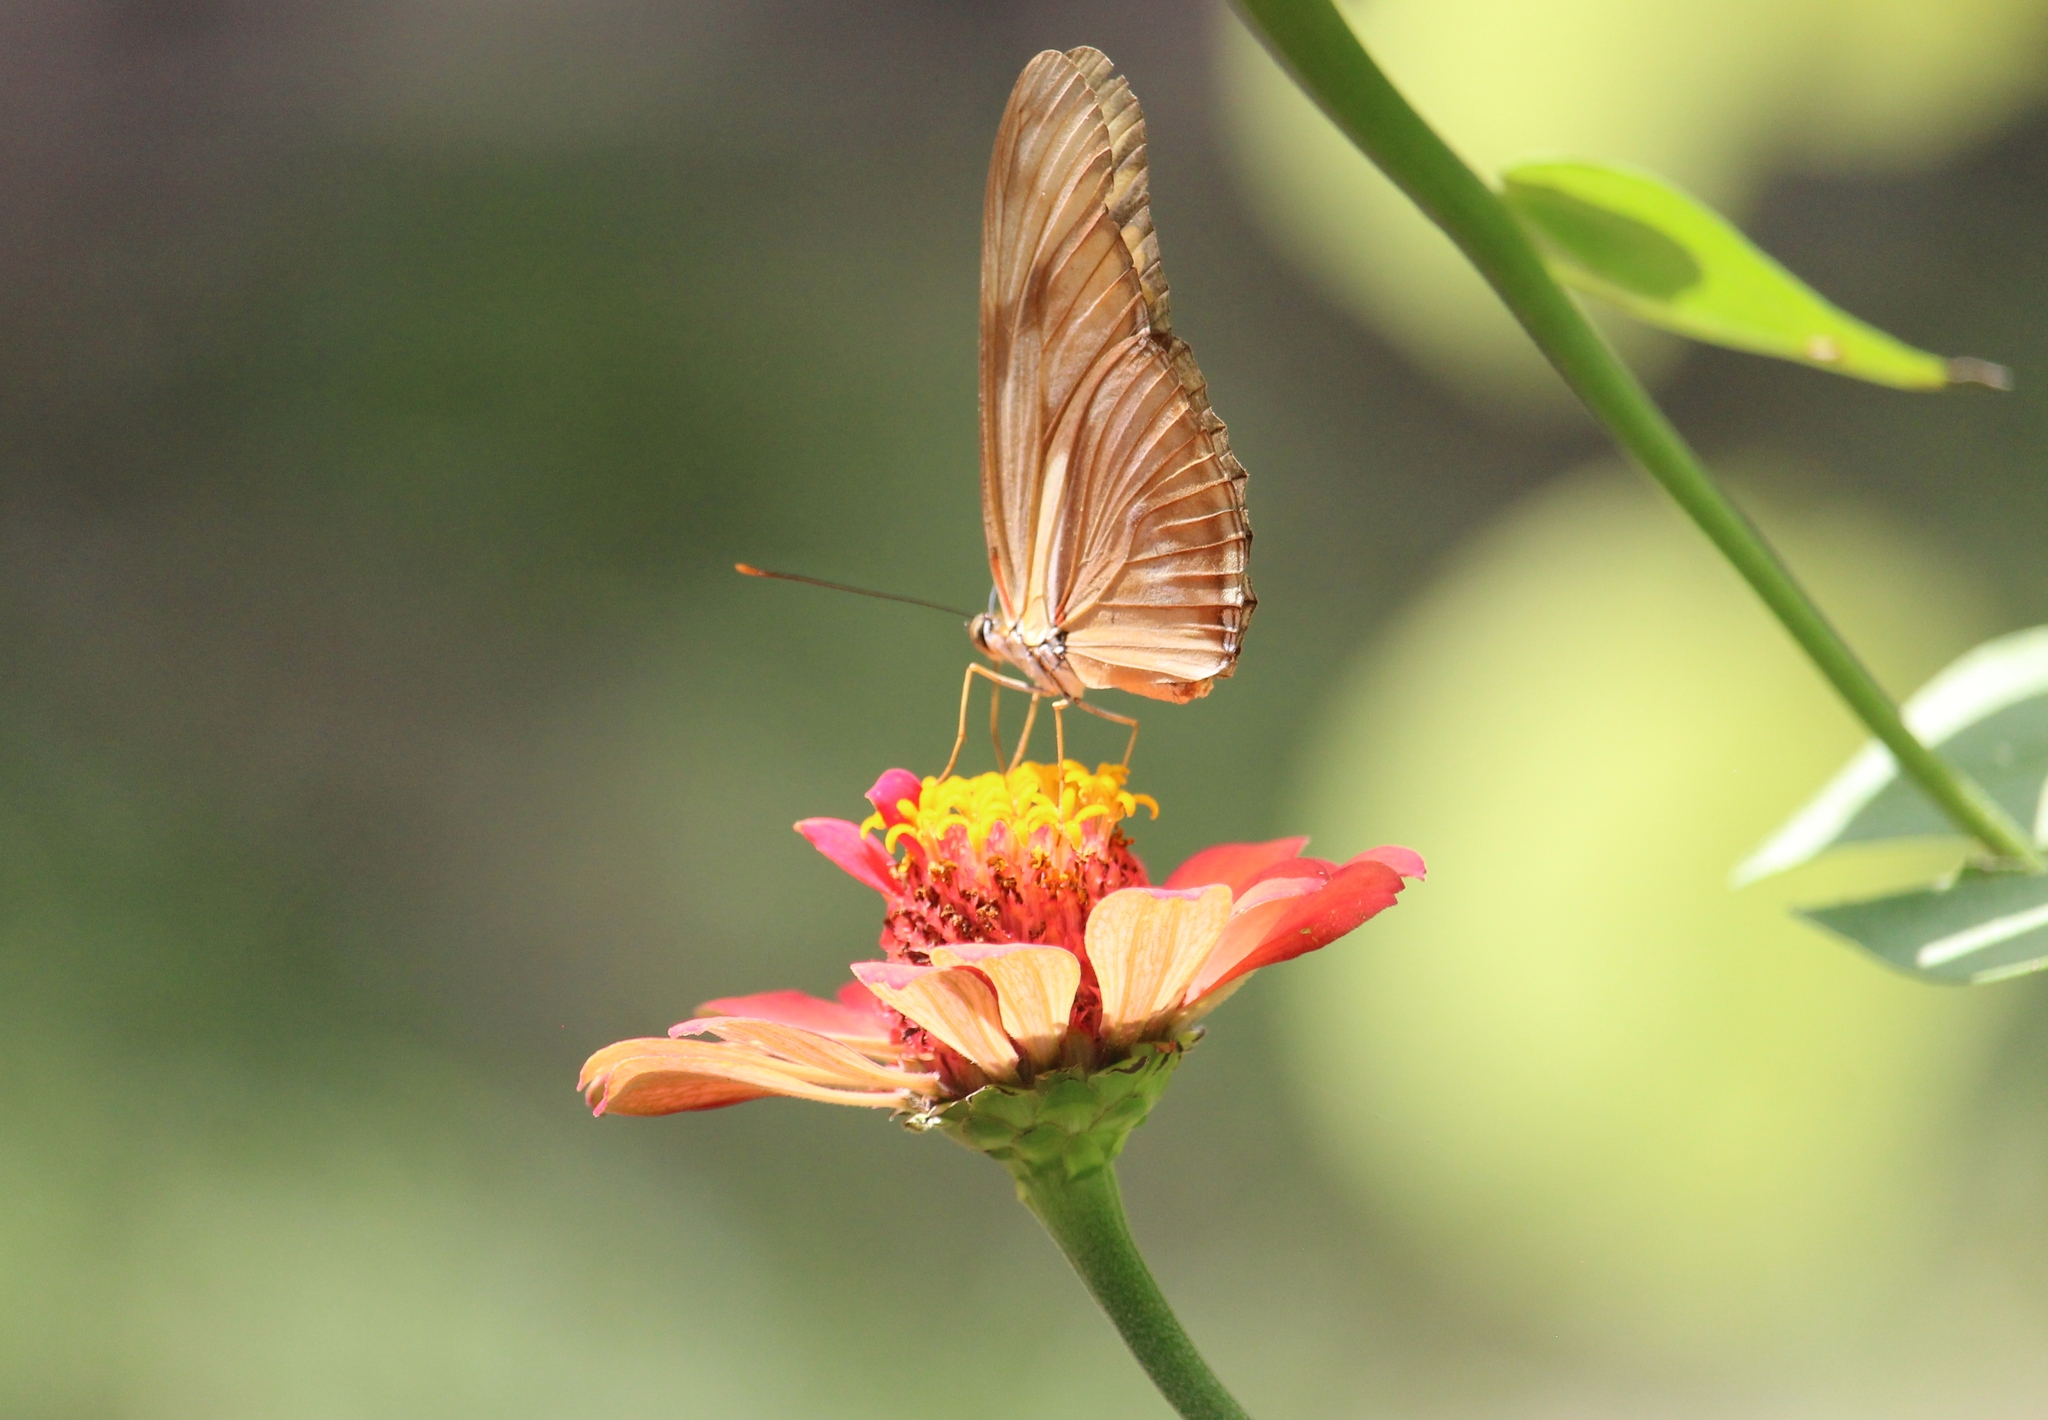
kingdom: Animalia
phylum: Arthropoda
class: Insecta
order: Lepidoptera
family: Nymphalidae
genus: Dryas
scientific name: Dryas iulia
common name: Flambeau
